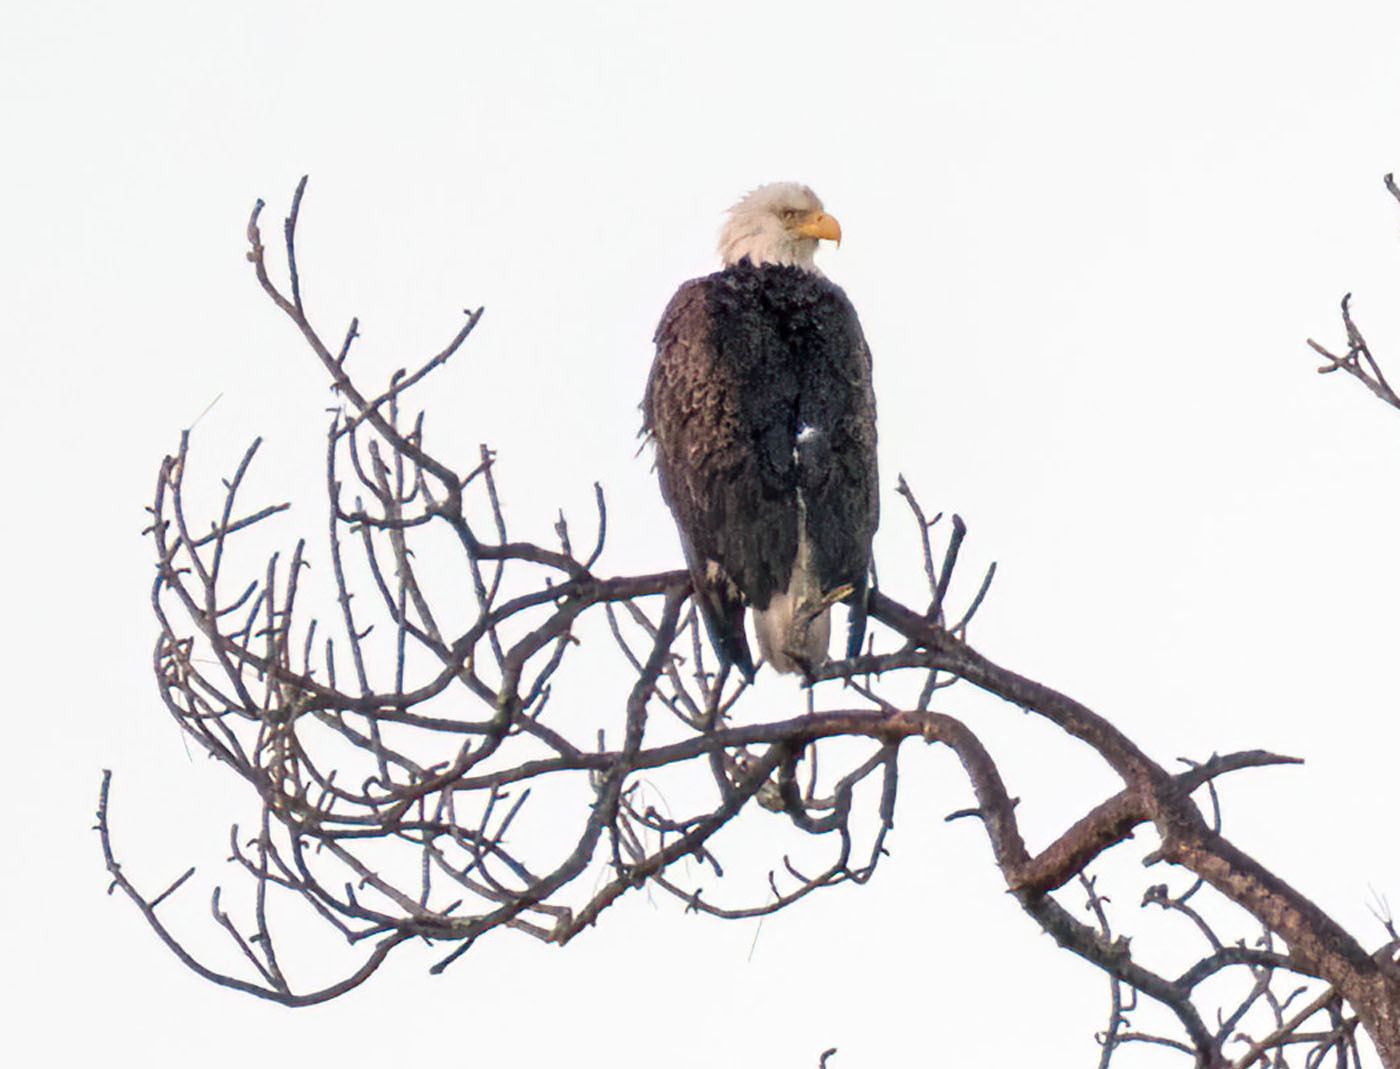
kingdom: Animalia
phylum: Chordata
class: Aves
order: Accipitriformes
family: Accipitridae
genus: Haliaeetus
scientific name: Haliaeetus leucocephalus
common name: Bald eagle
